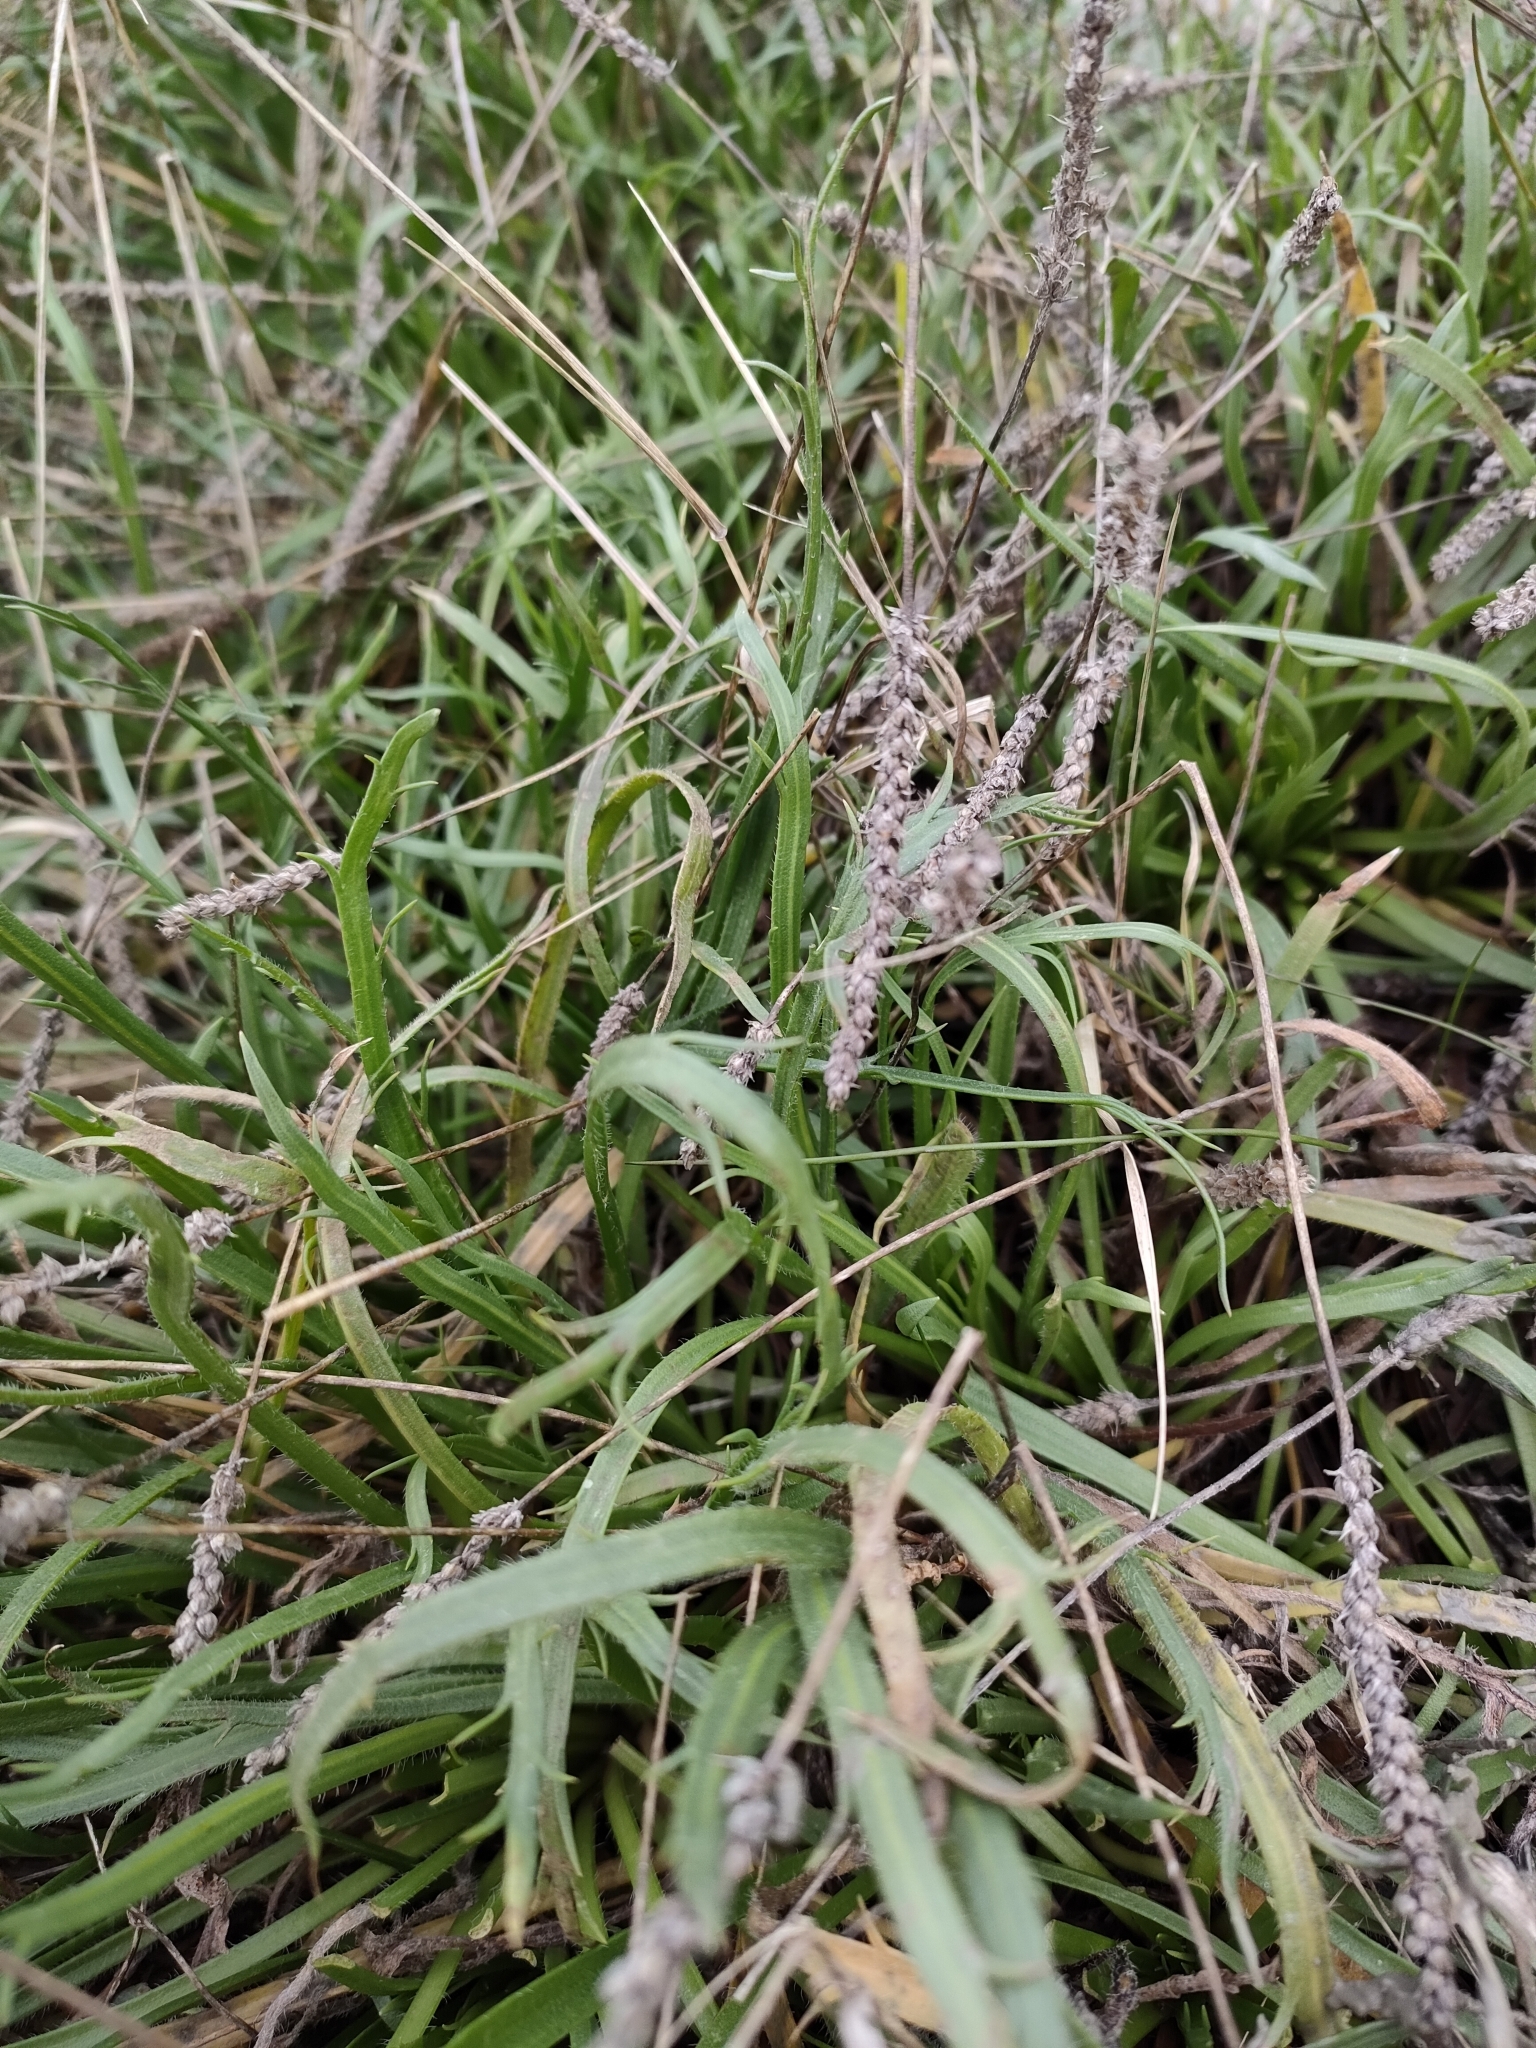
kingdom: Plantae
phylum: Tracheophyta
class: Magnoliopsida
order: Lamiales
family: Plantaginaceae
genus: Plantago
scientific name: Plantago coronopus
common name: Buck's-horn plantain
